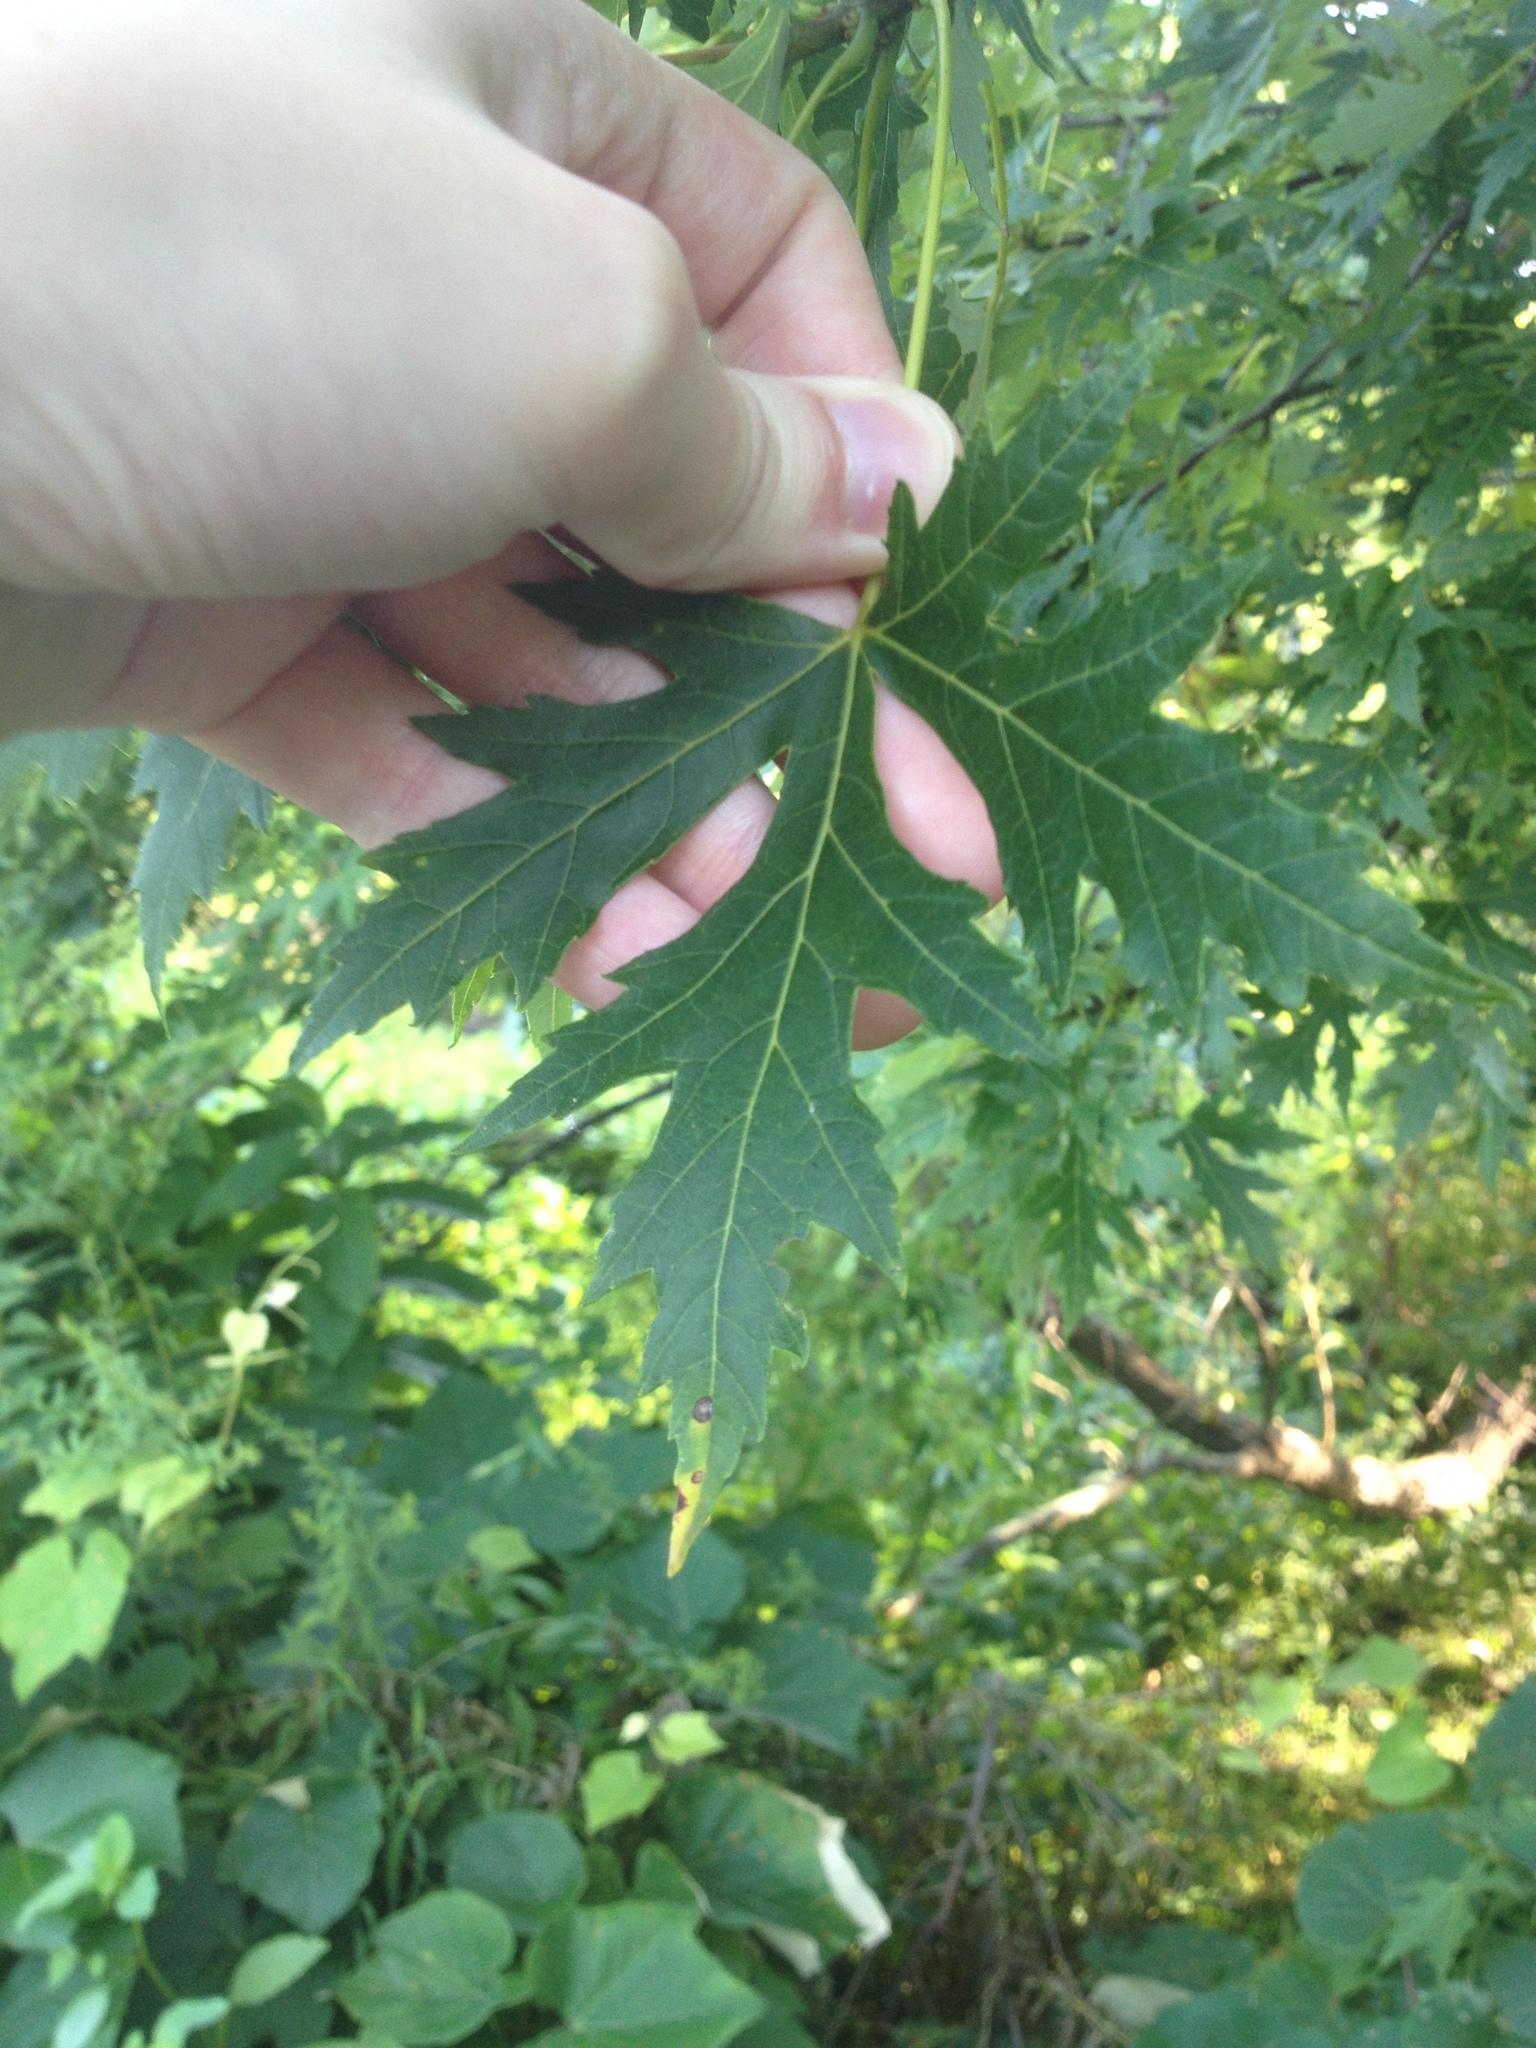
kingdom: Plantae
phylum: Tracheophyta
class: Magnoliopsida
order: Sapindales
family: Sapindaceae
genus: Acer
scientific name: Acer saccharinum
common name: Silver maple
